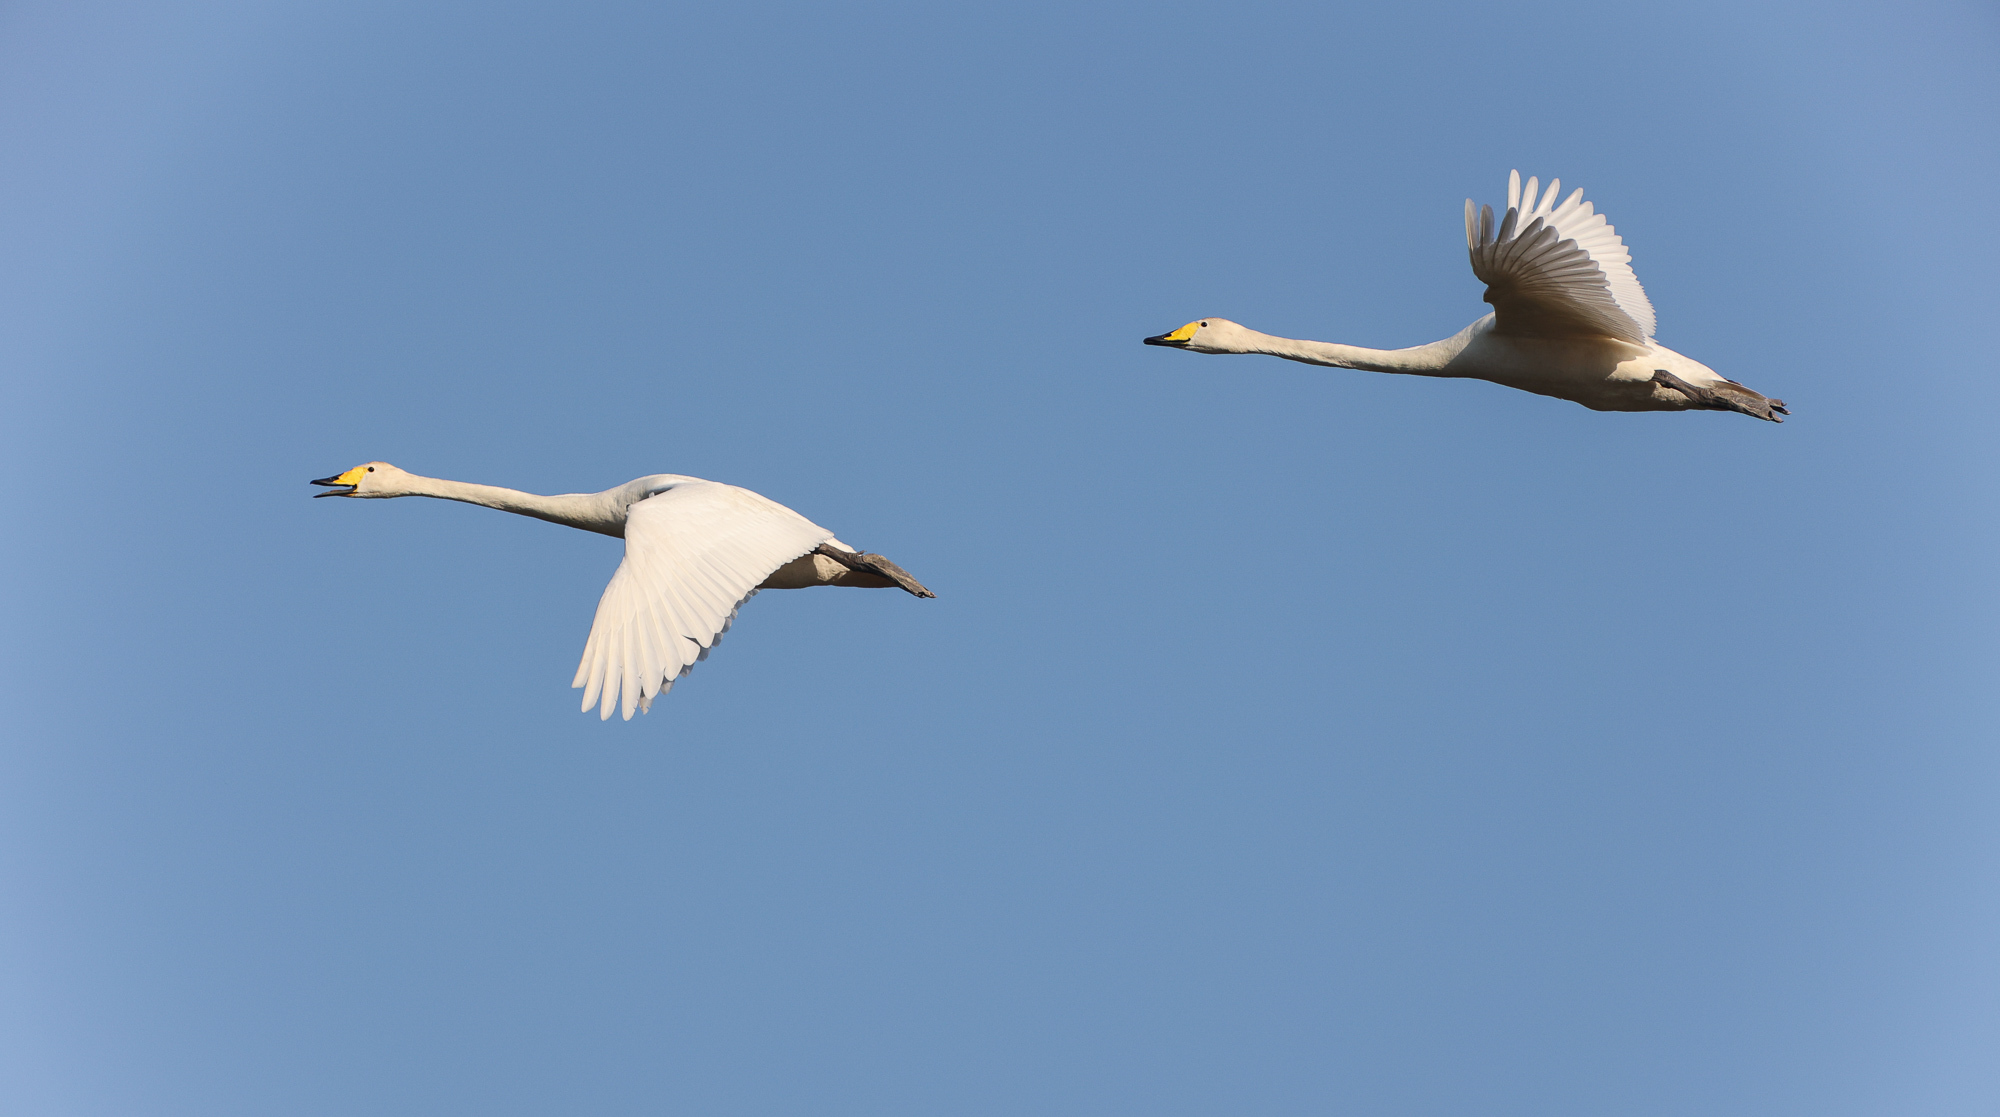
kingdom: Animalia
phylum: Chordata
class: Aves
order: Anseriformes
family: Anatidae
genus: Cygnus
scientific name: Cygnus cygnus
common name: Whooper swan
